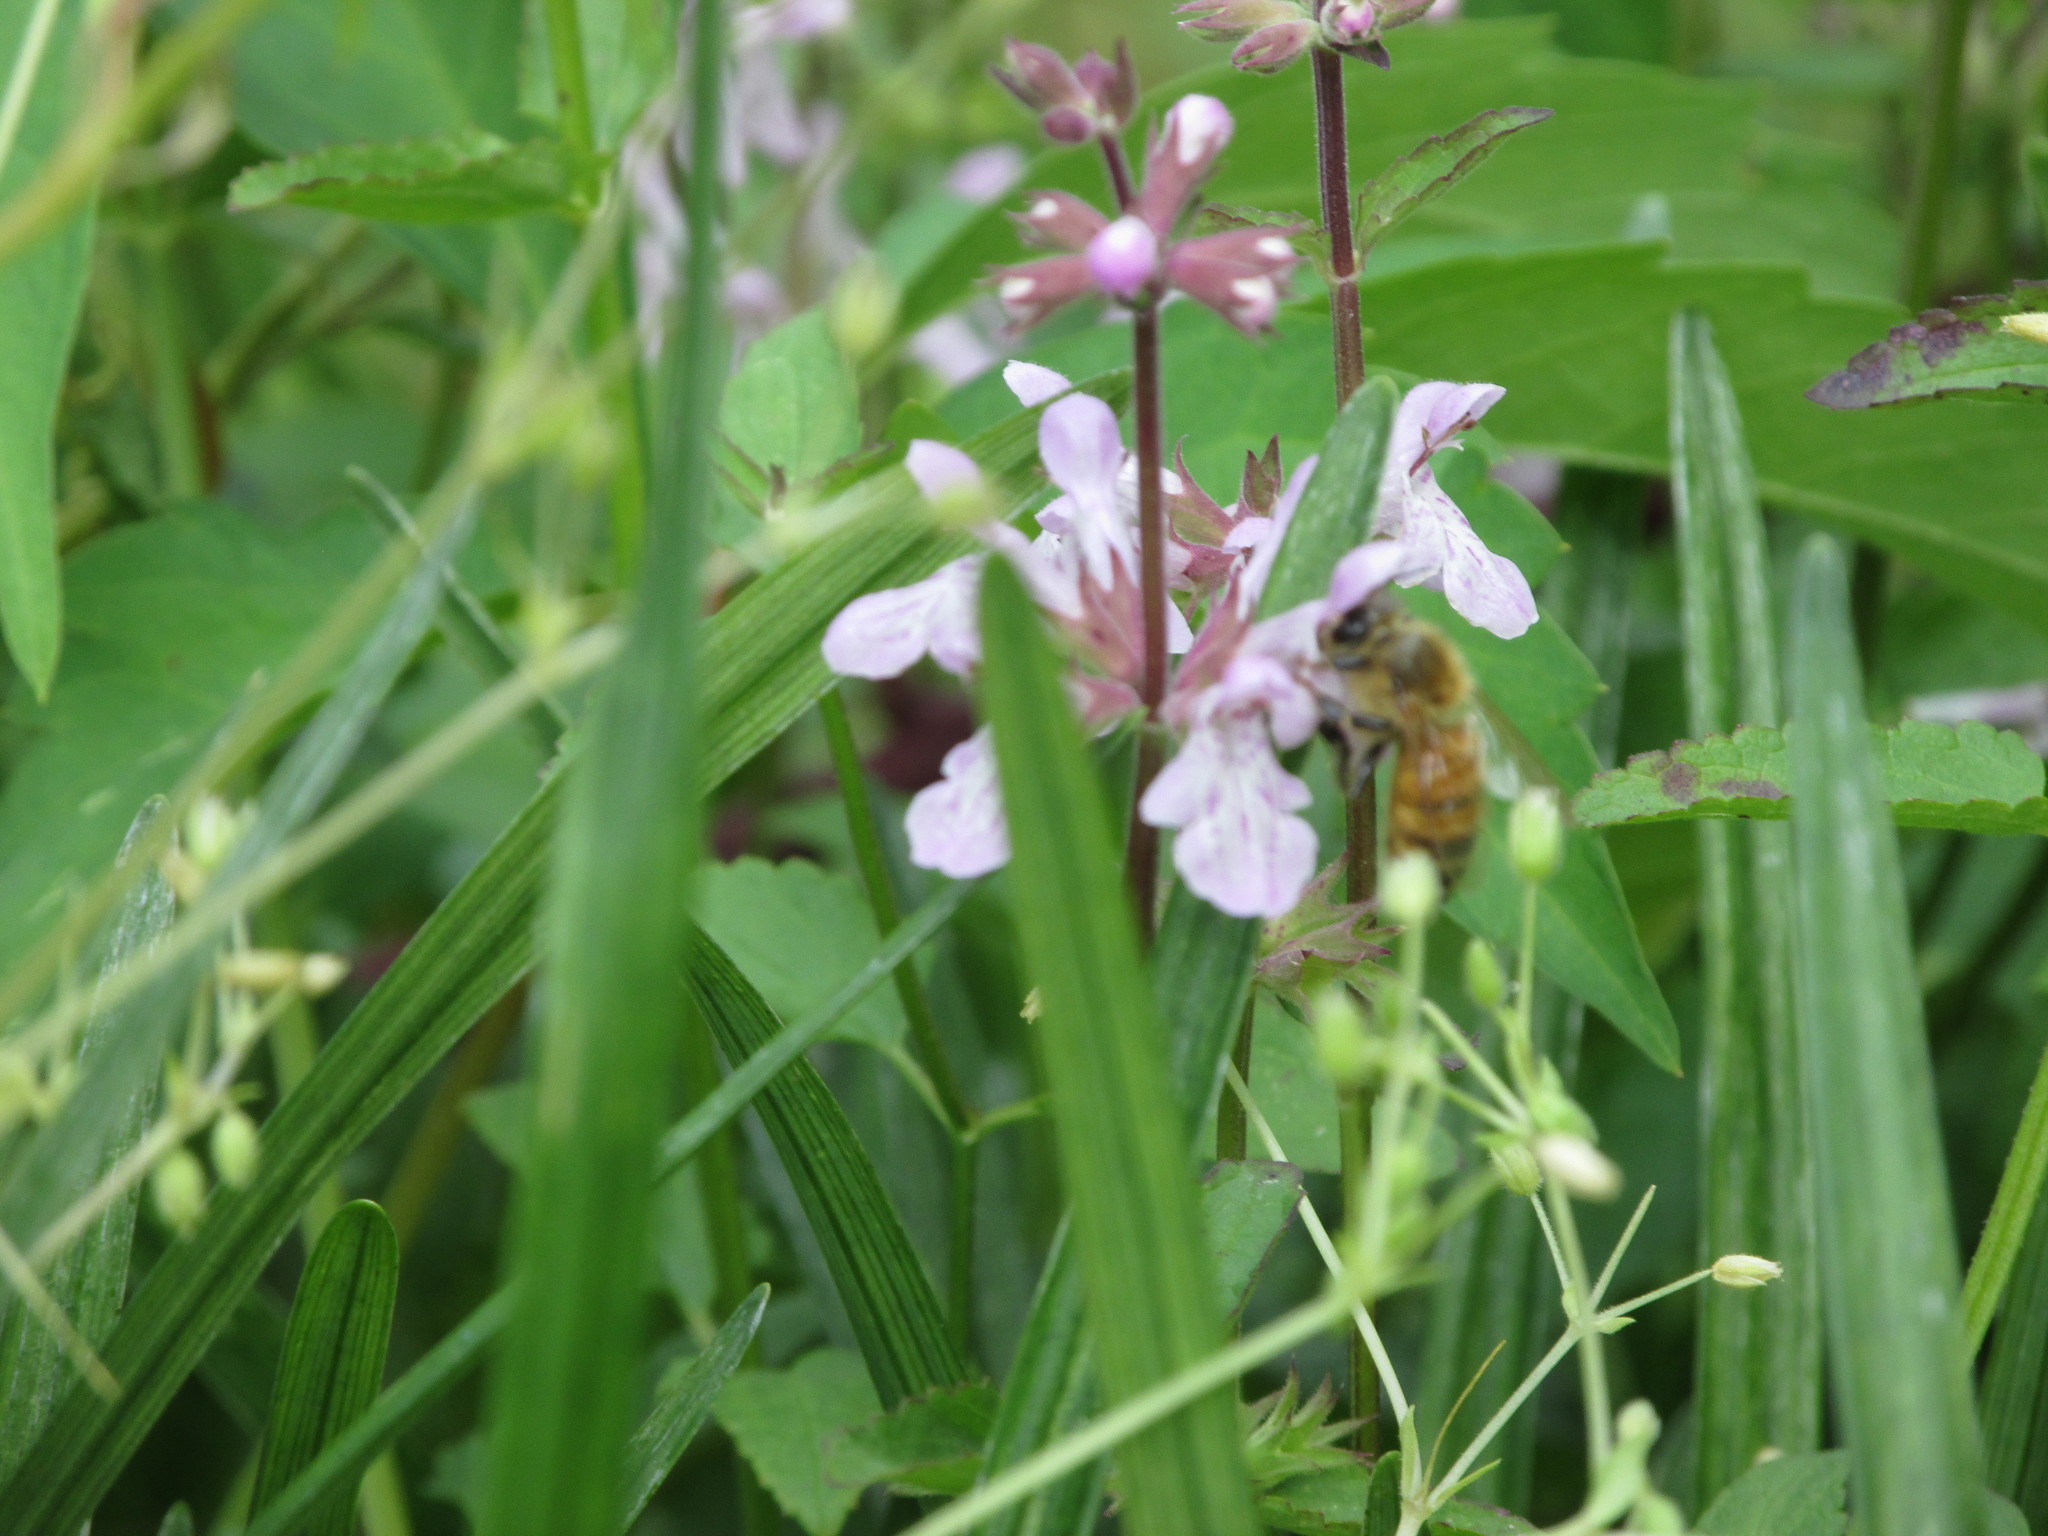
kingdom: Animalia
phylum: Arthropoda
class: Insecta
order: Hymenoptera
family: Apidae
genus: Apis
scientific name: Apis mellifera
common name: Honey bee
